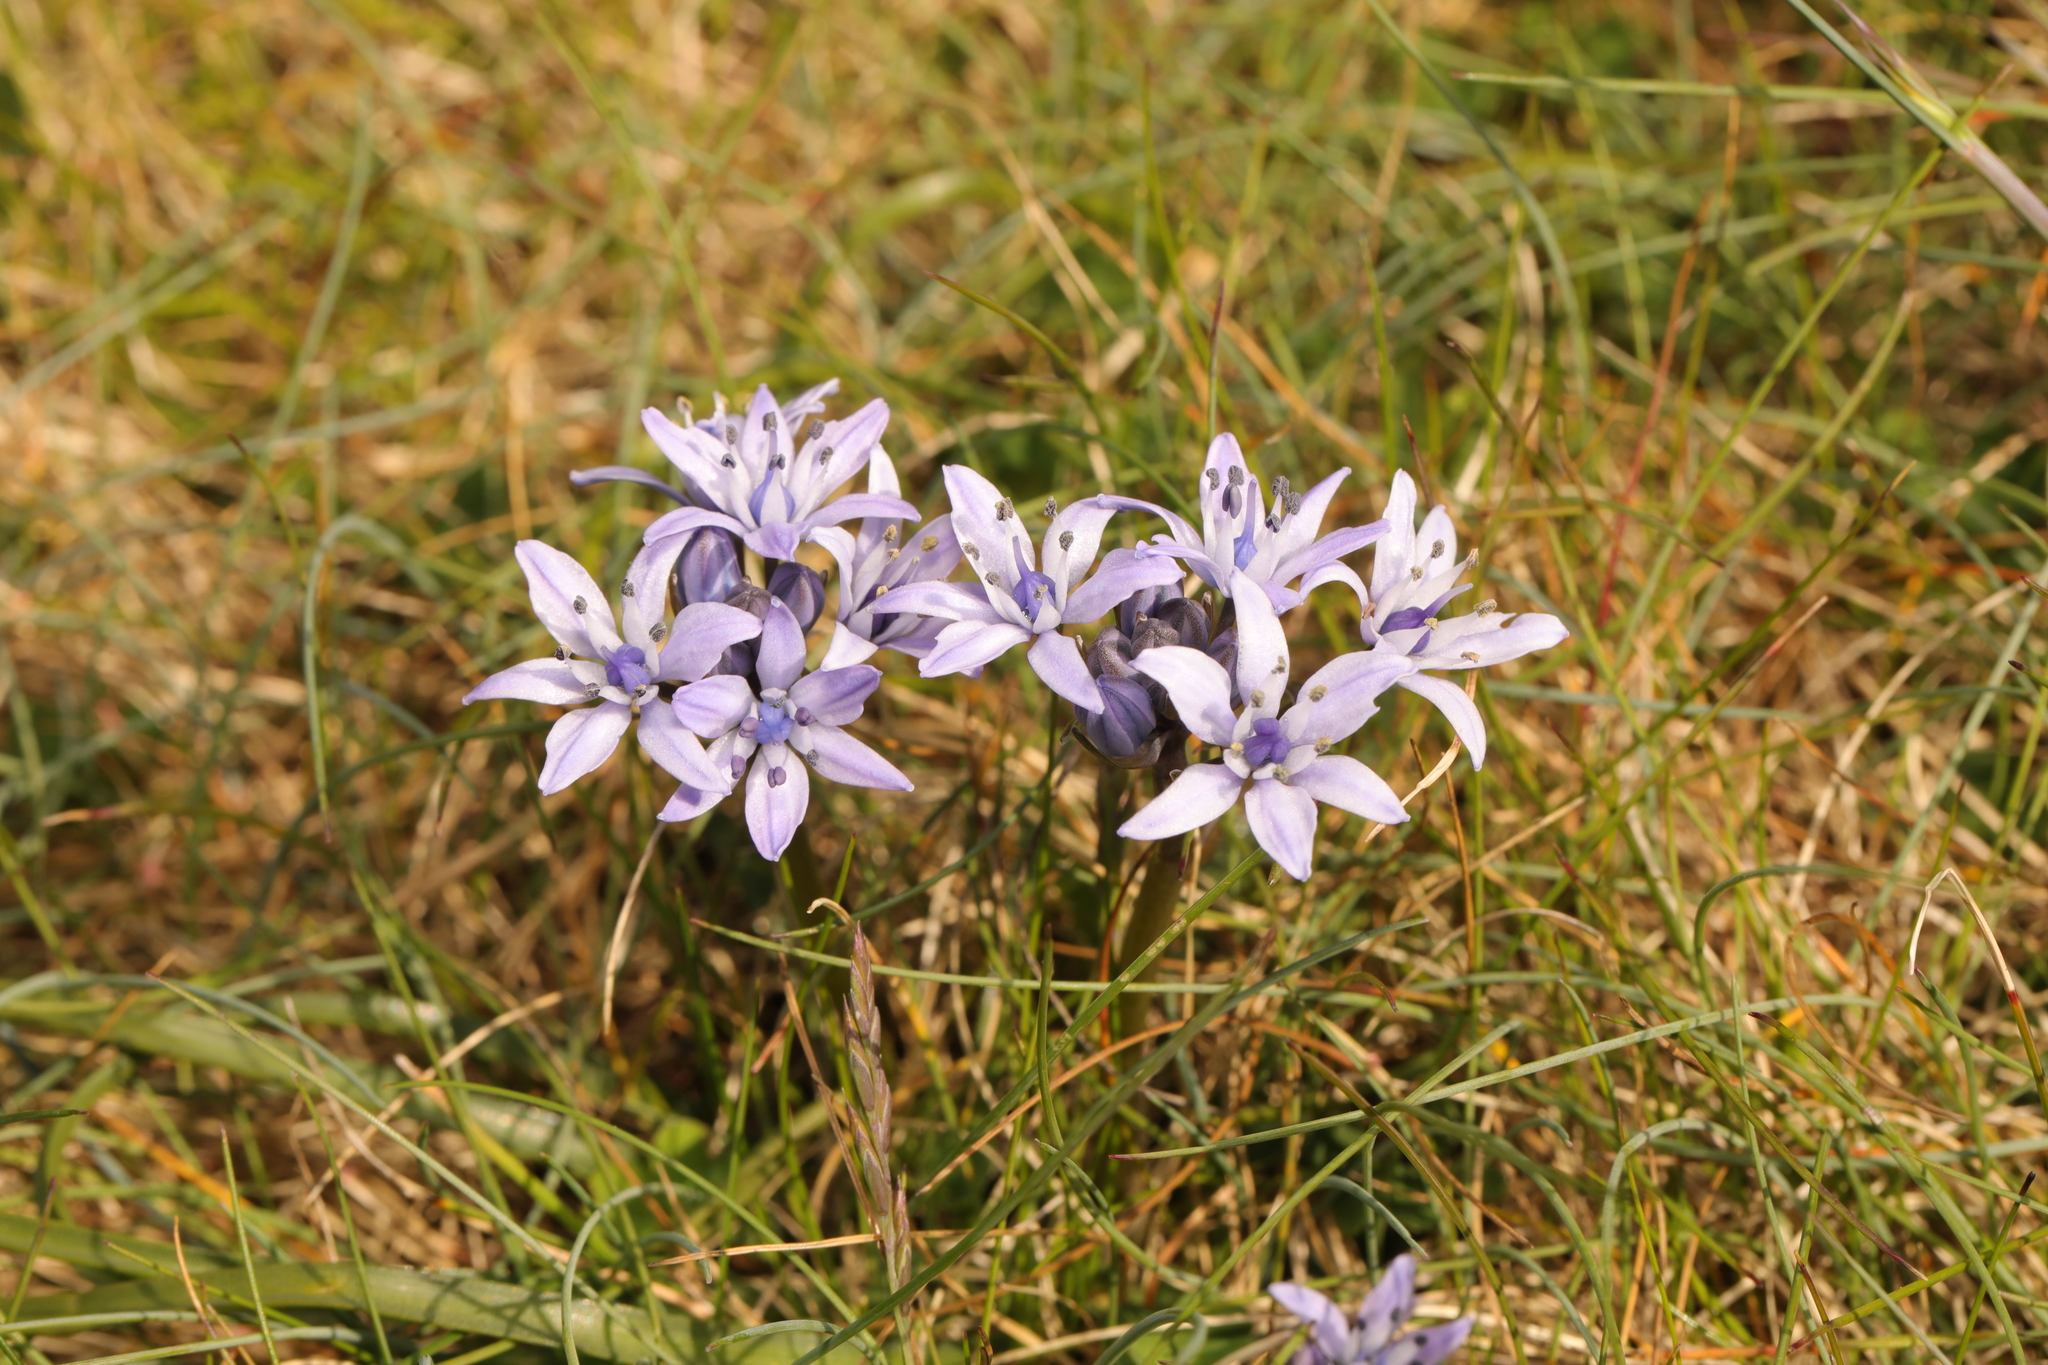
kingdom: Plantae
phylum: Tracheophyta
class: Liliopsida
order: Asparagales
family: Asparagaceae
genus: Scilla
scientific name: Scilla verna
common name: Spring squill
